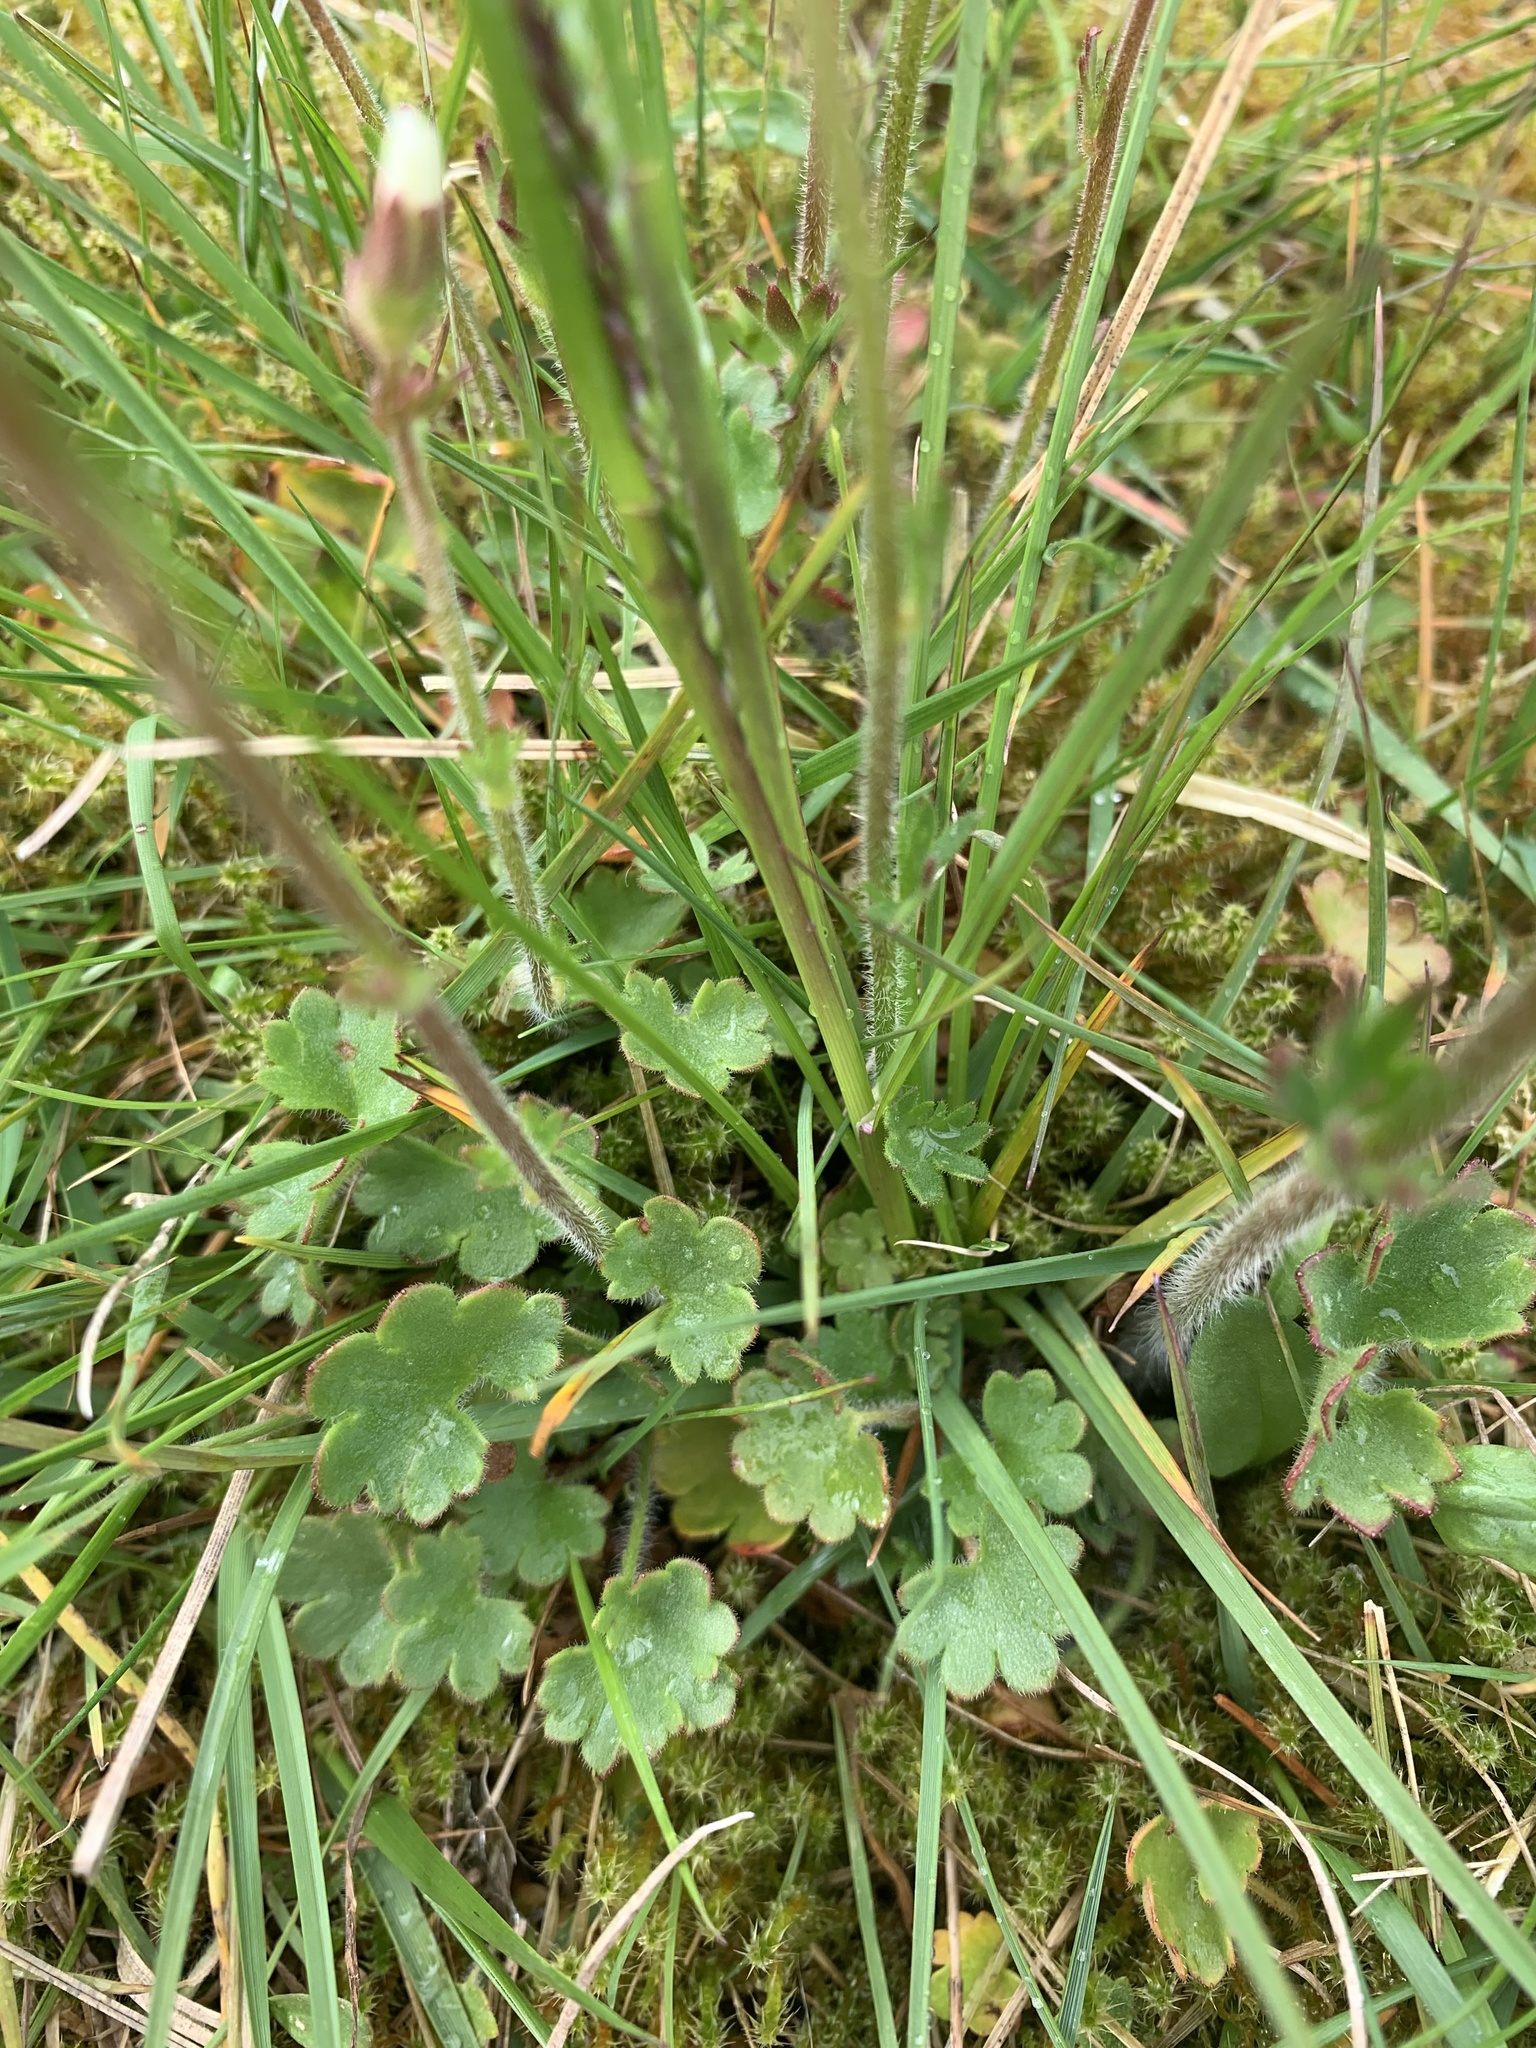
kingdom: Plantae
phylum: Tracheophyta
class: Magnoliopsida
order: Saxifragales
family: Saxifragaceae
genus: Saxifraga
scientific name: Saxifraga granulata
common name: Meadow saxifrage
